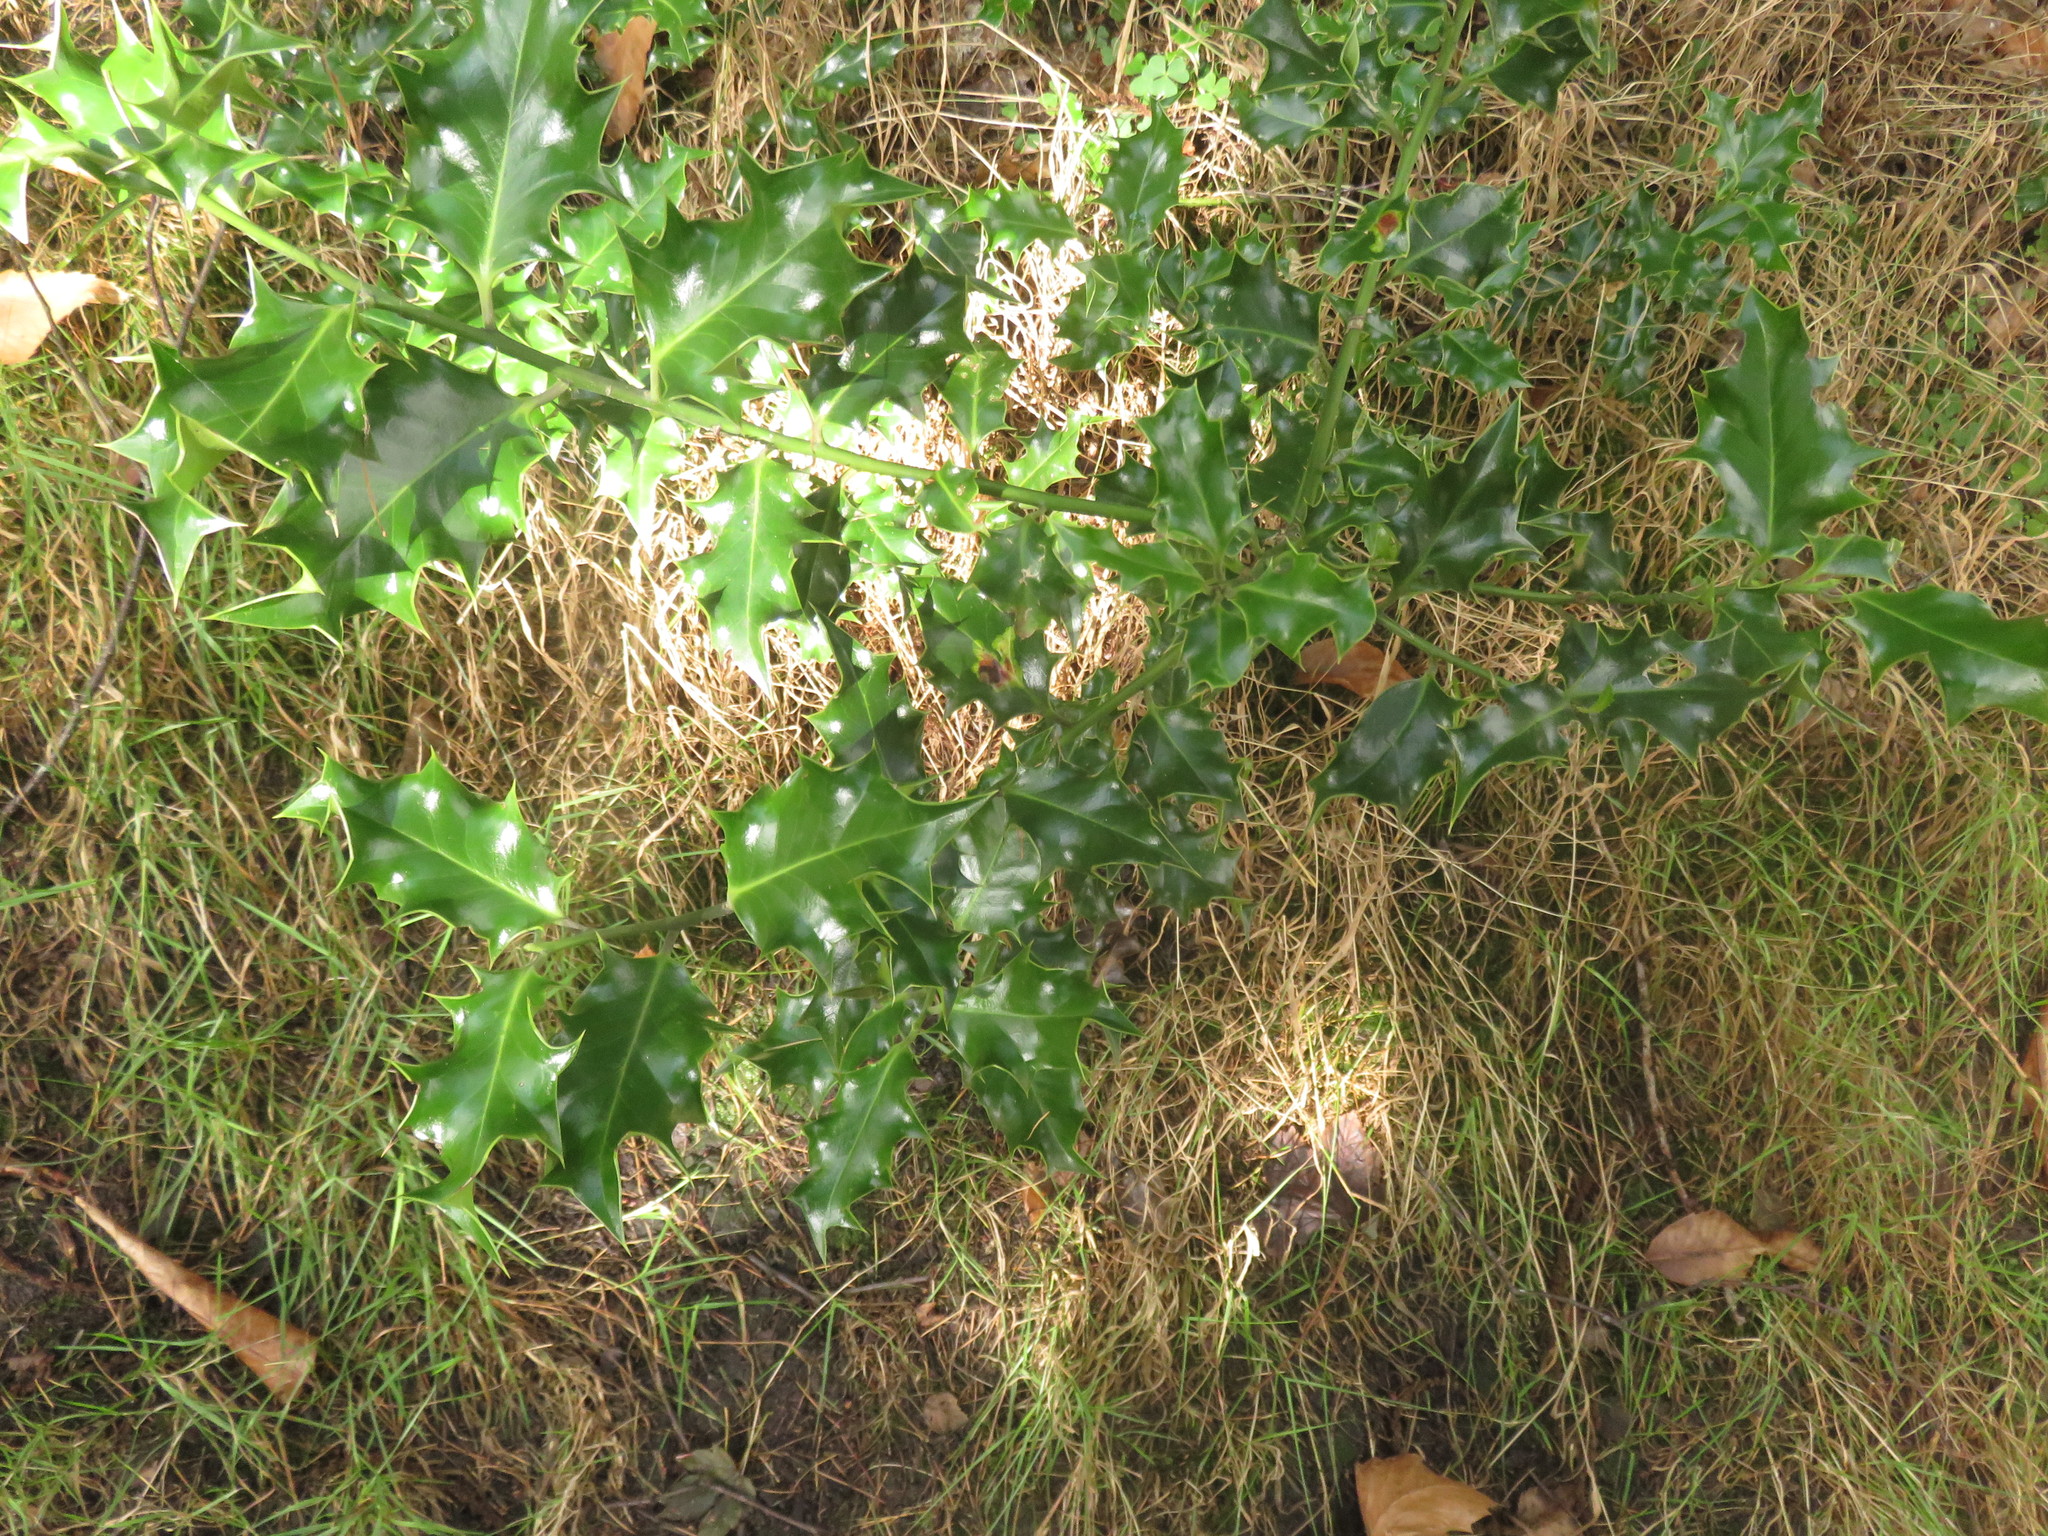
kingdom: Plantae
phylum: Tracheophyta
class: Magnoliopsida
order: Aquifoliales
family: Aquifoliaceae
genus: Ilex
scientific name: Ilex aquifolium
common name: English holly
